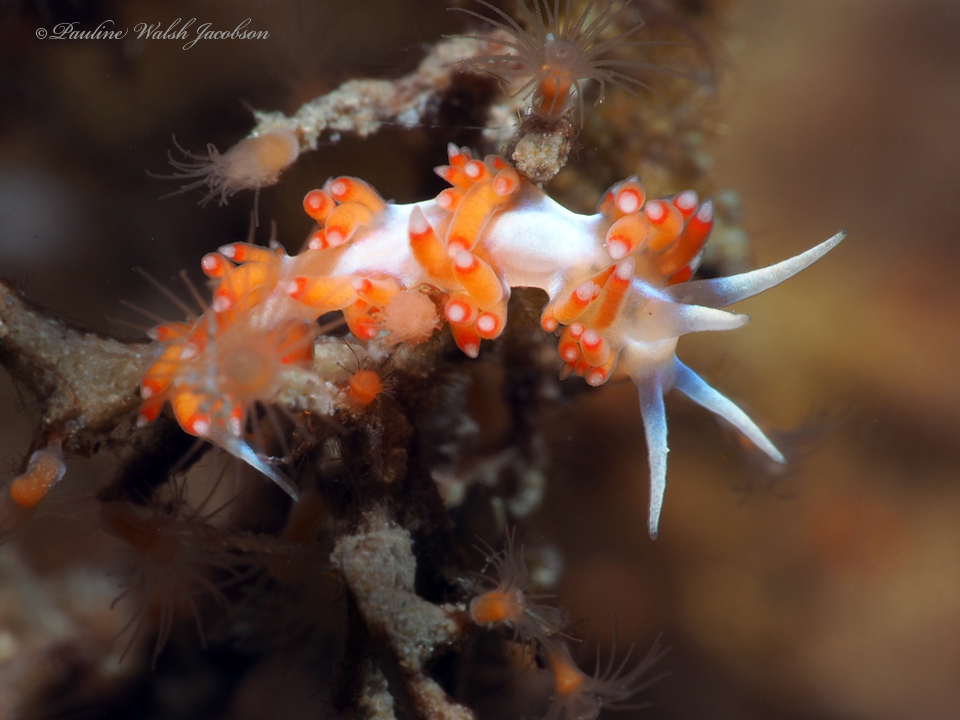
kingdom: Animalia
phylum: Mollusca
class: Gastropoda
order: Nudibranchia
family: Flabellinidae
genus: Flabellina
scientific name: Flabellina dushia
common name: Dushia flabellina
